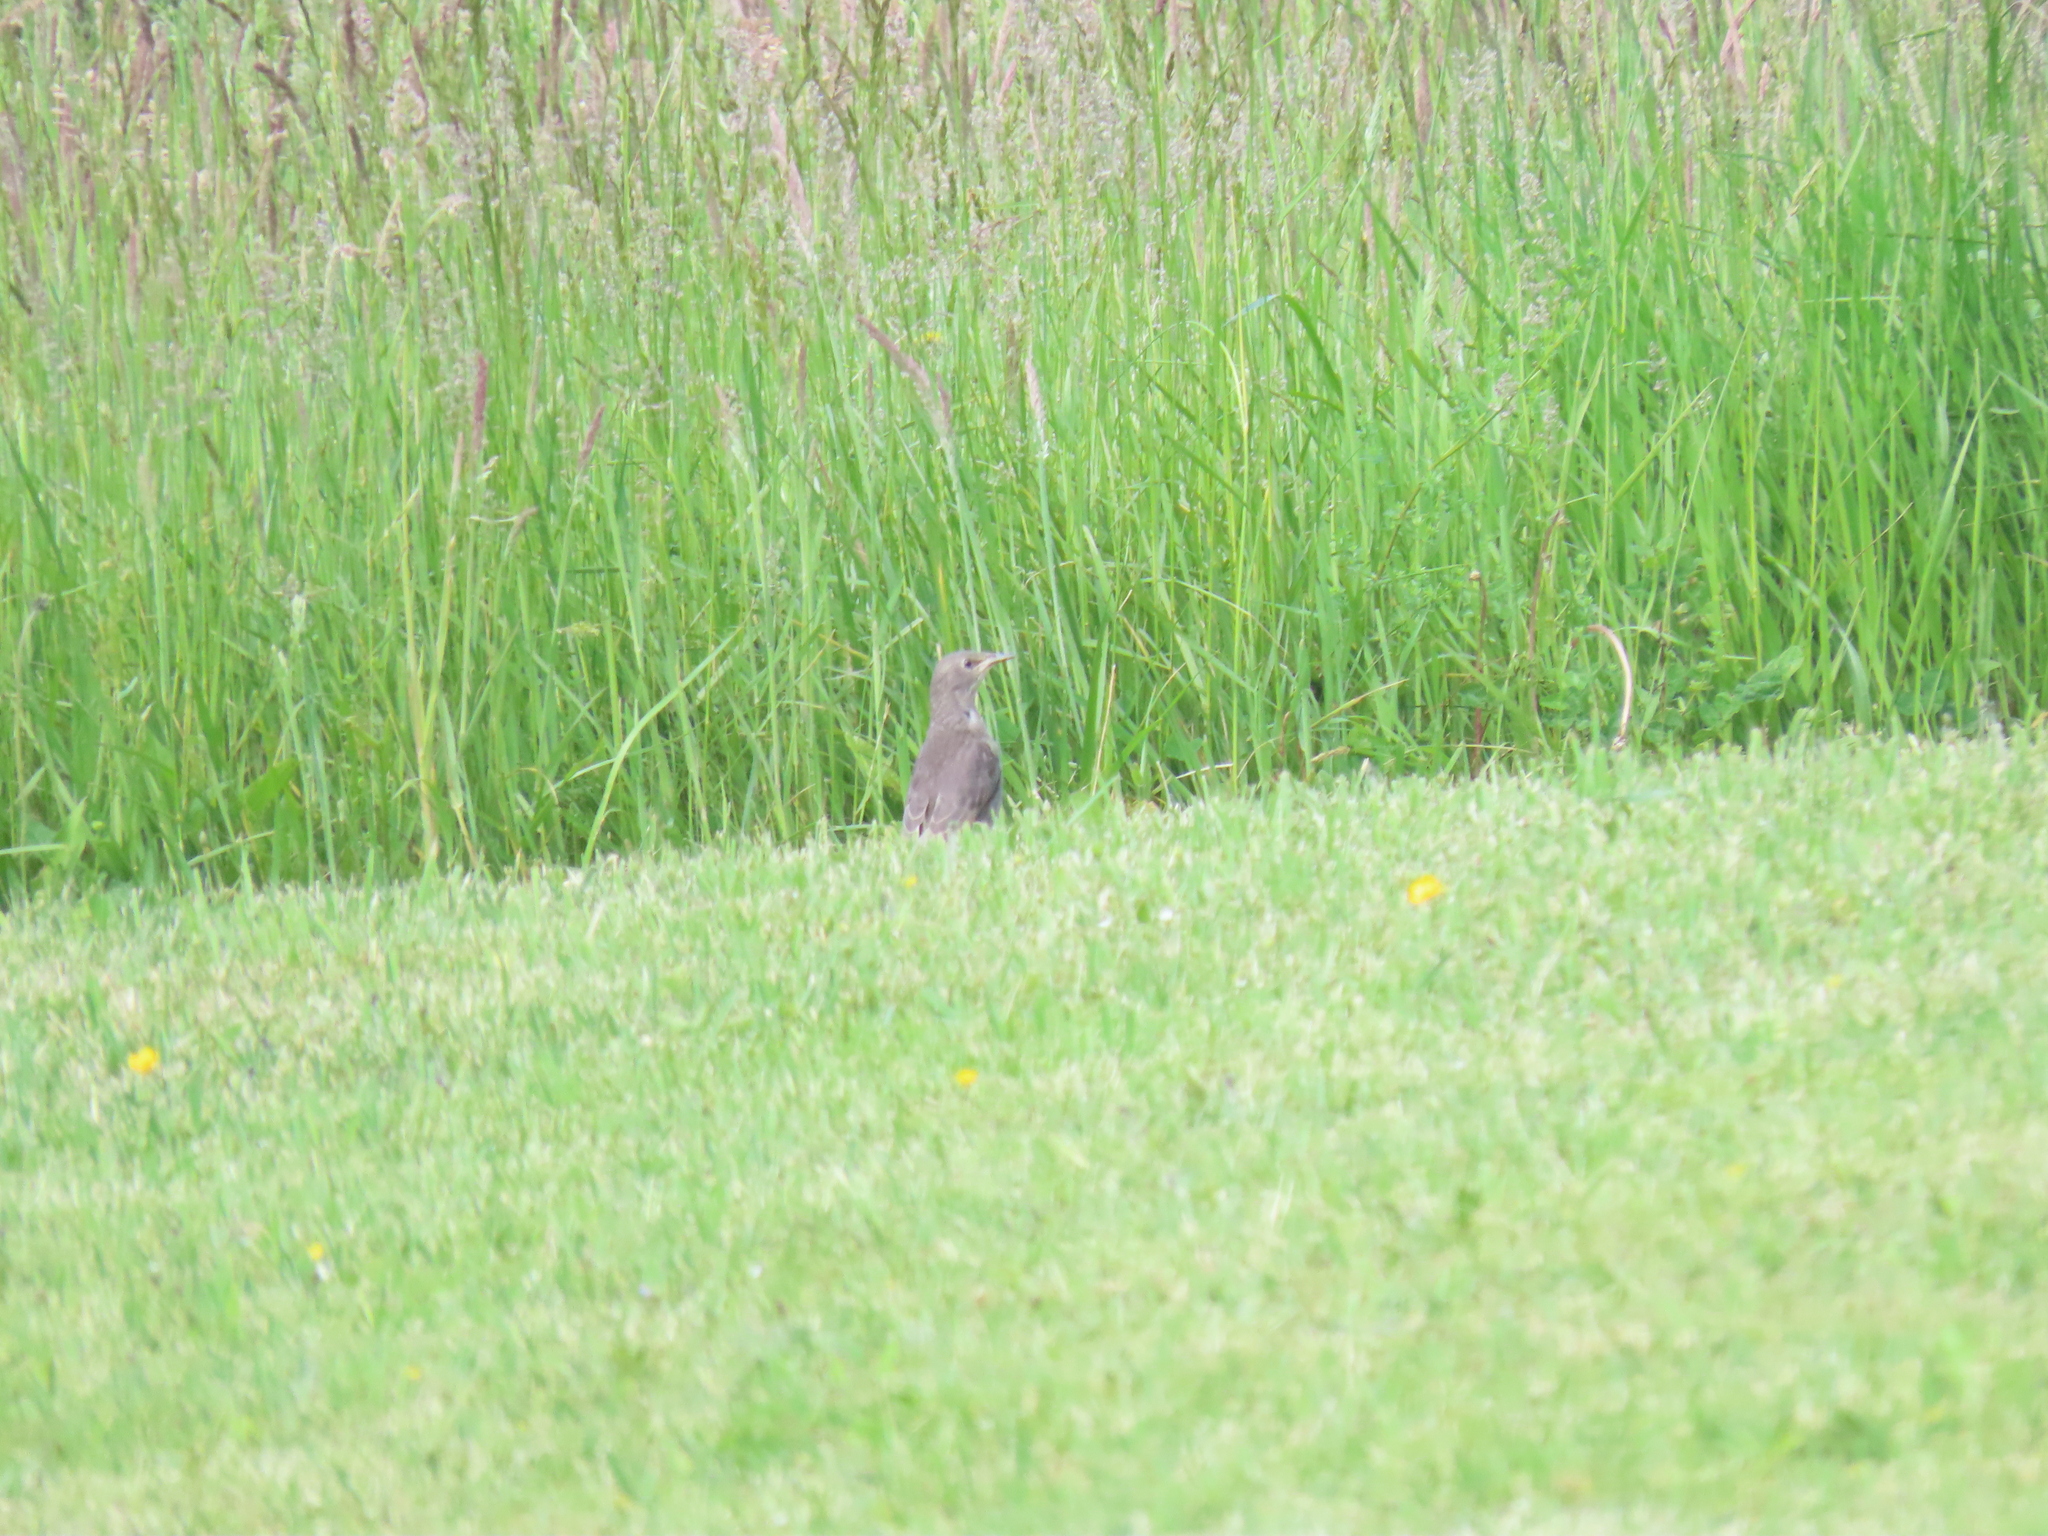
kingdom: Animalia
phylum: Chordata
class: Aves
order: Passeriformes
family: Sturnidae
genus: Sturnus
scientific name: Sturnus vulgaris
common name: Common starling
